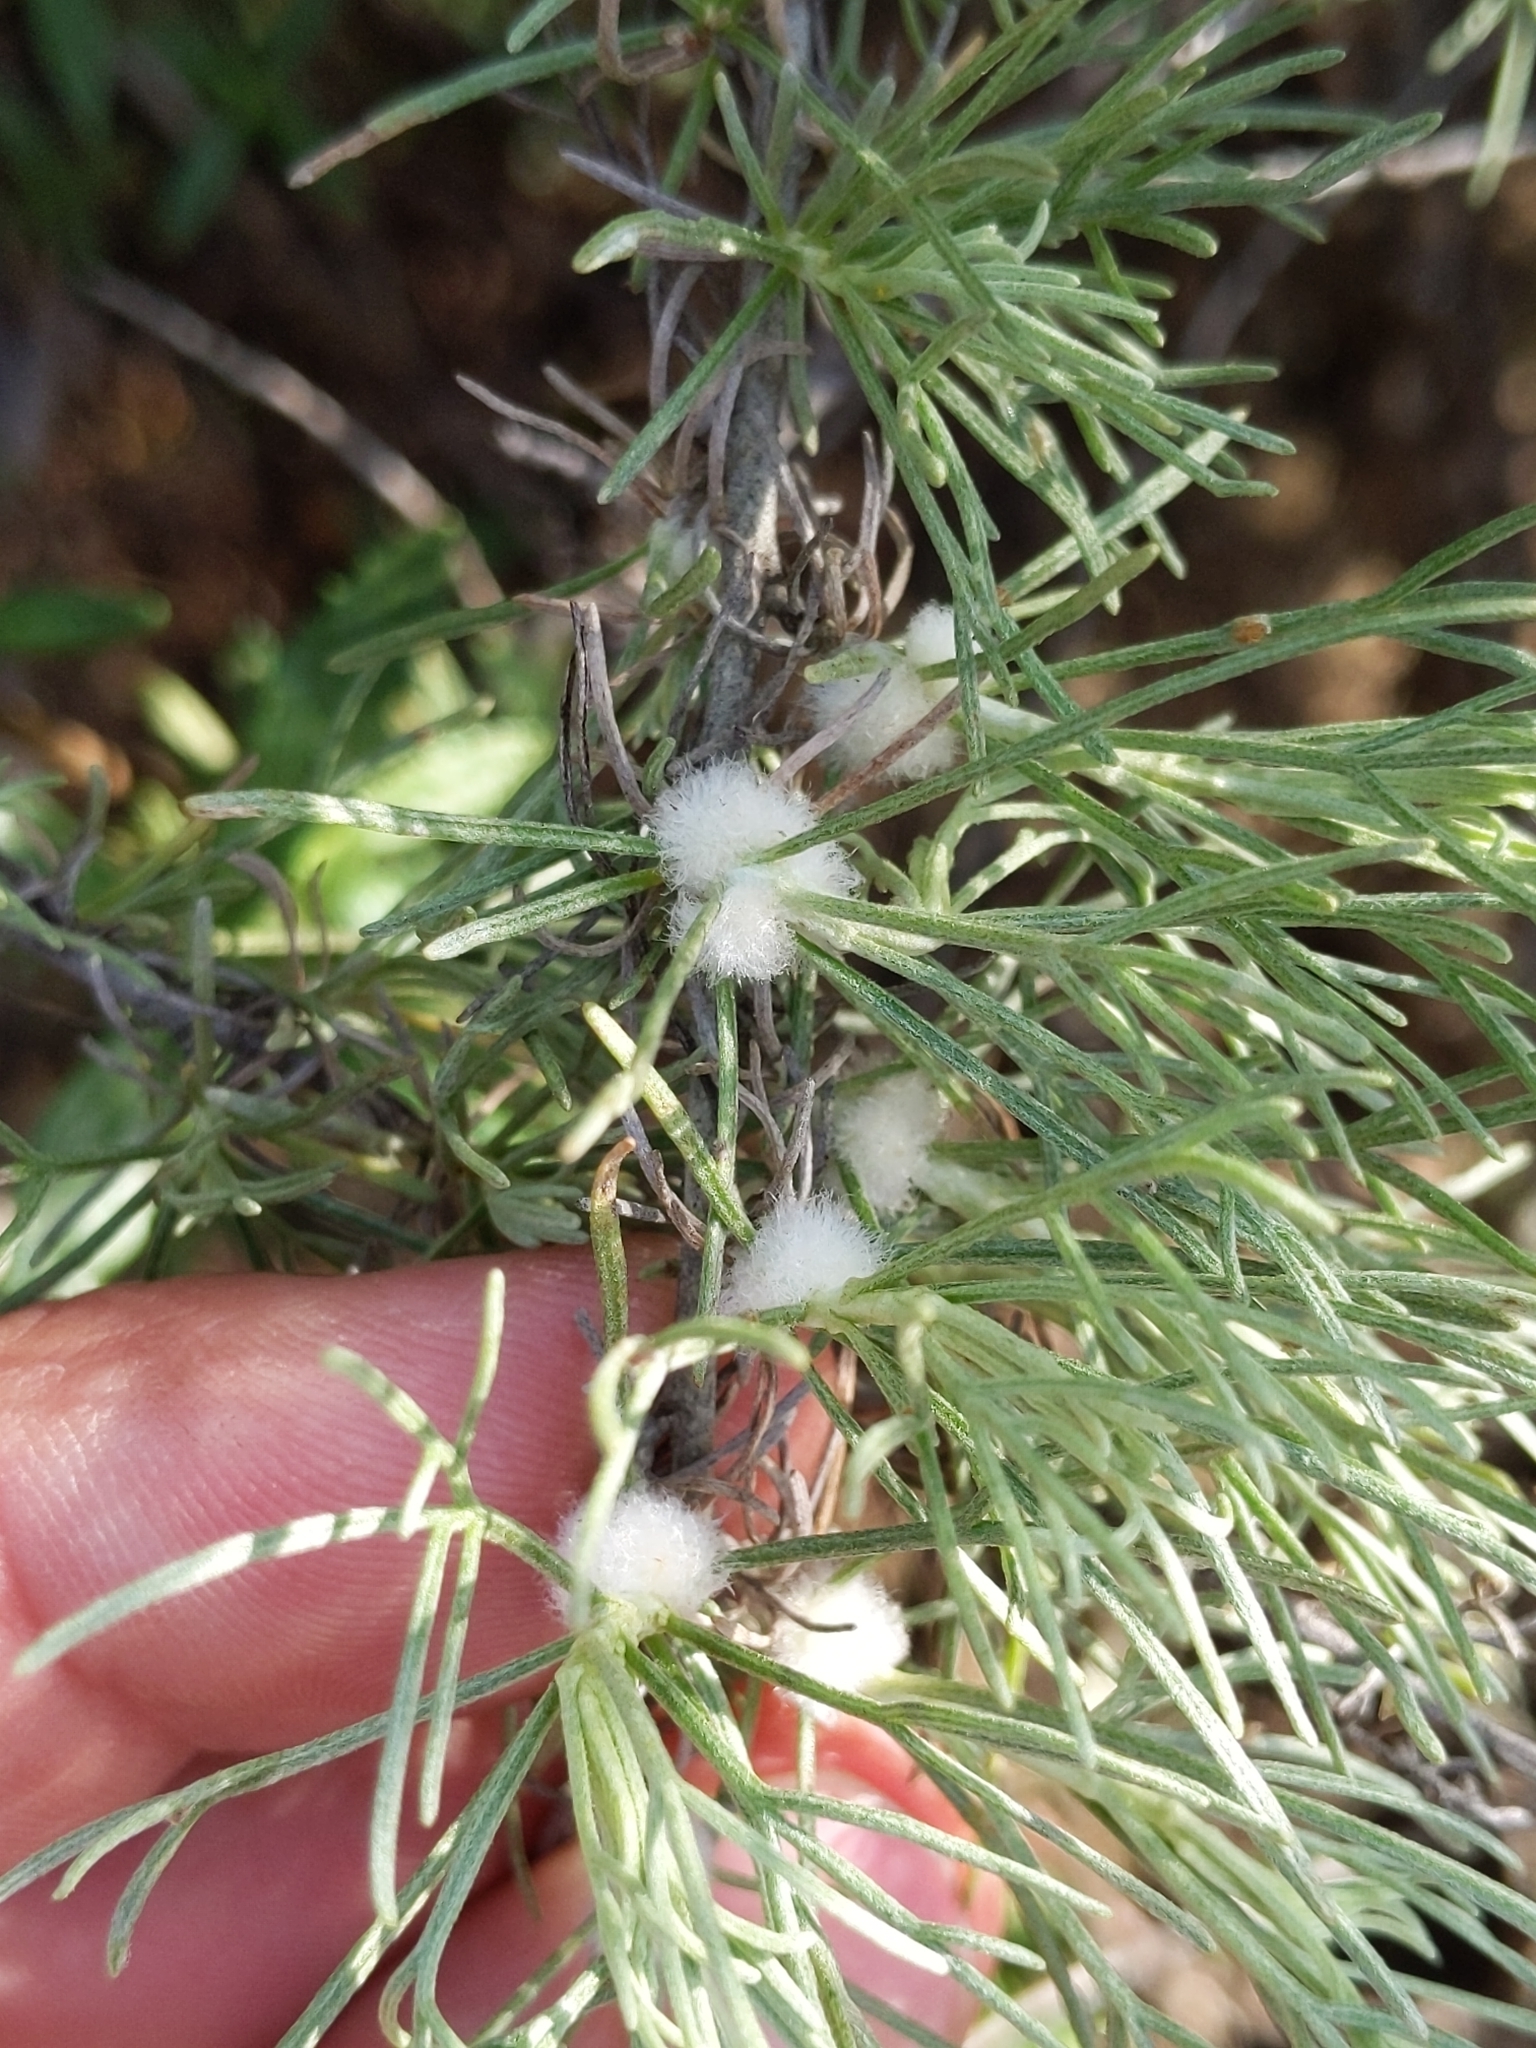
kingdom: Animalia
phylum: Arthropoda
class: Insecta
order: Diptera
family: Cecidomyiidae
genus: Rhopalomyia
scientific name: Rhopalomyia floccosa
